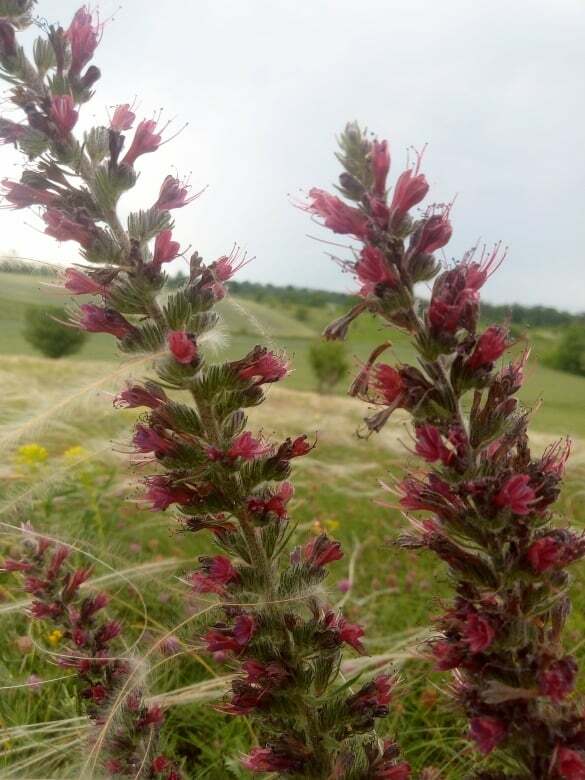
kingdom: Plantae
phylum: Tracheophyta
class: Magnoliopsida
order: Boraginales
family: Boraginaceae
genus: Pontechium
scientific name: Pontechium maculatum
